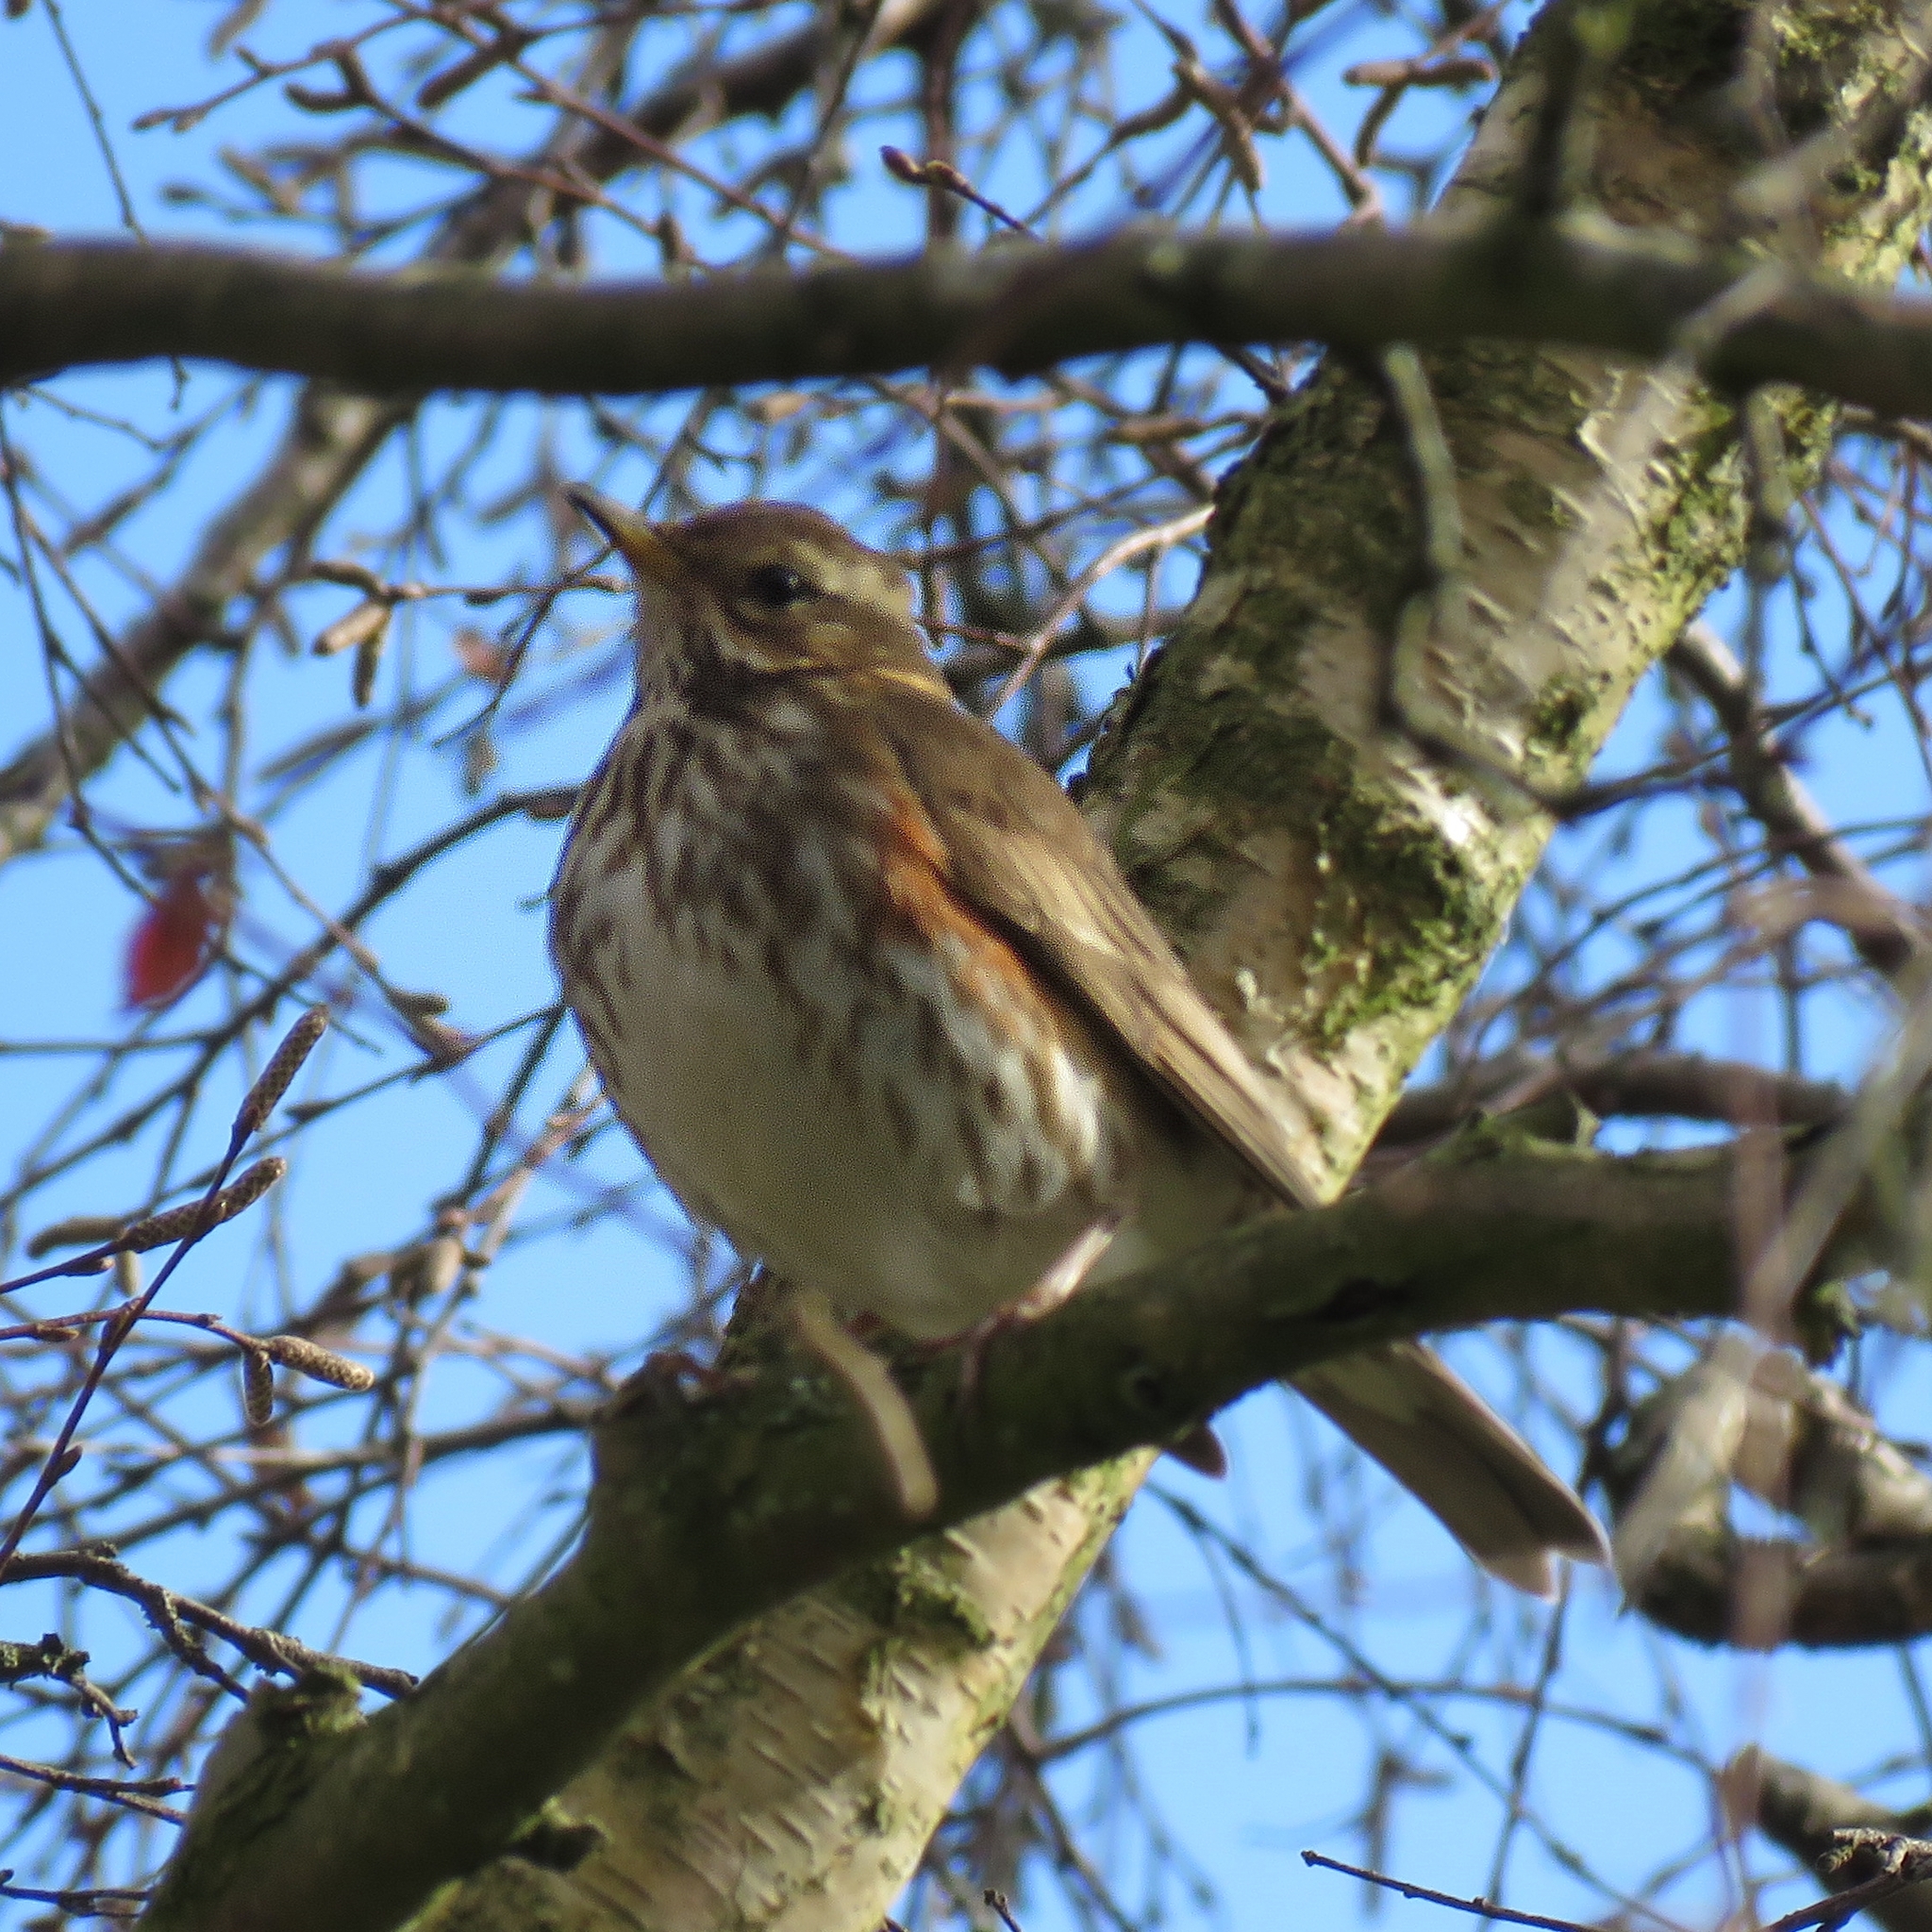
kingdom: Animalia
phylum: Chordata
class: Aves
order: Passeriformes
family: Turdidae
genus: Turdus
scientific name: Turdus iliacus
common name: Redwing
